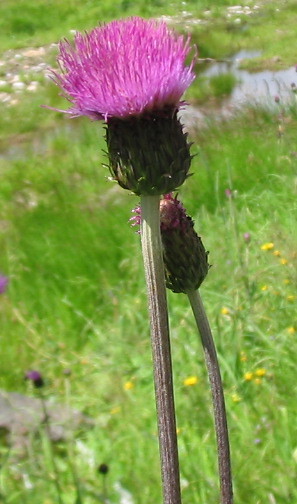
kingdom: Plantae
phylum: Tracheophyta
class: Magnoliopsida
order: Asterales
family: Asteraceae
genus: Cirsium
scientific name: Cirsium heterophyllum
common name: Melancholy thistle
